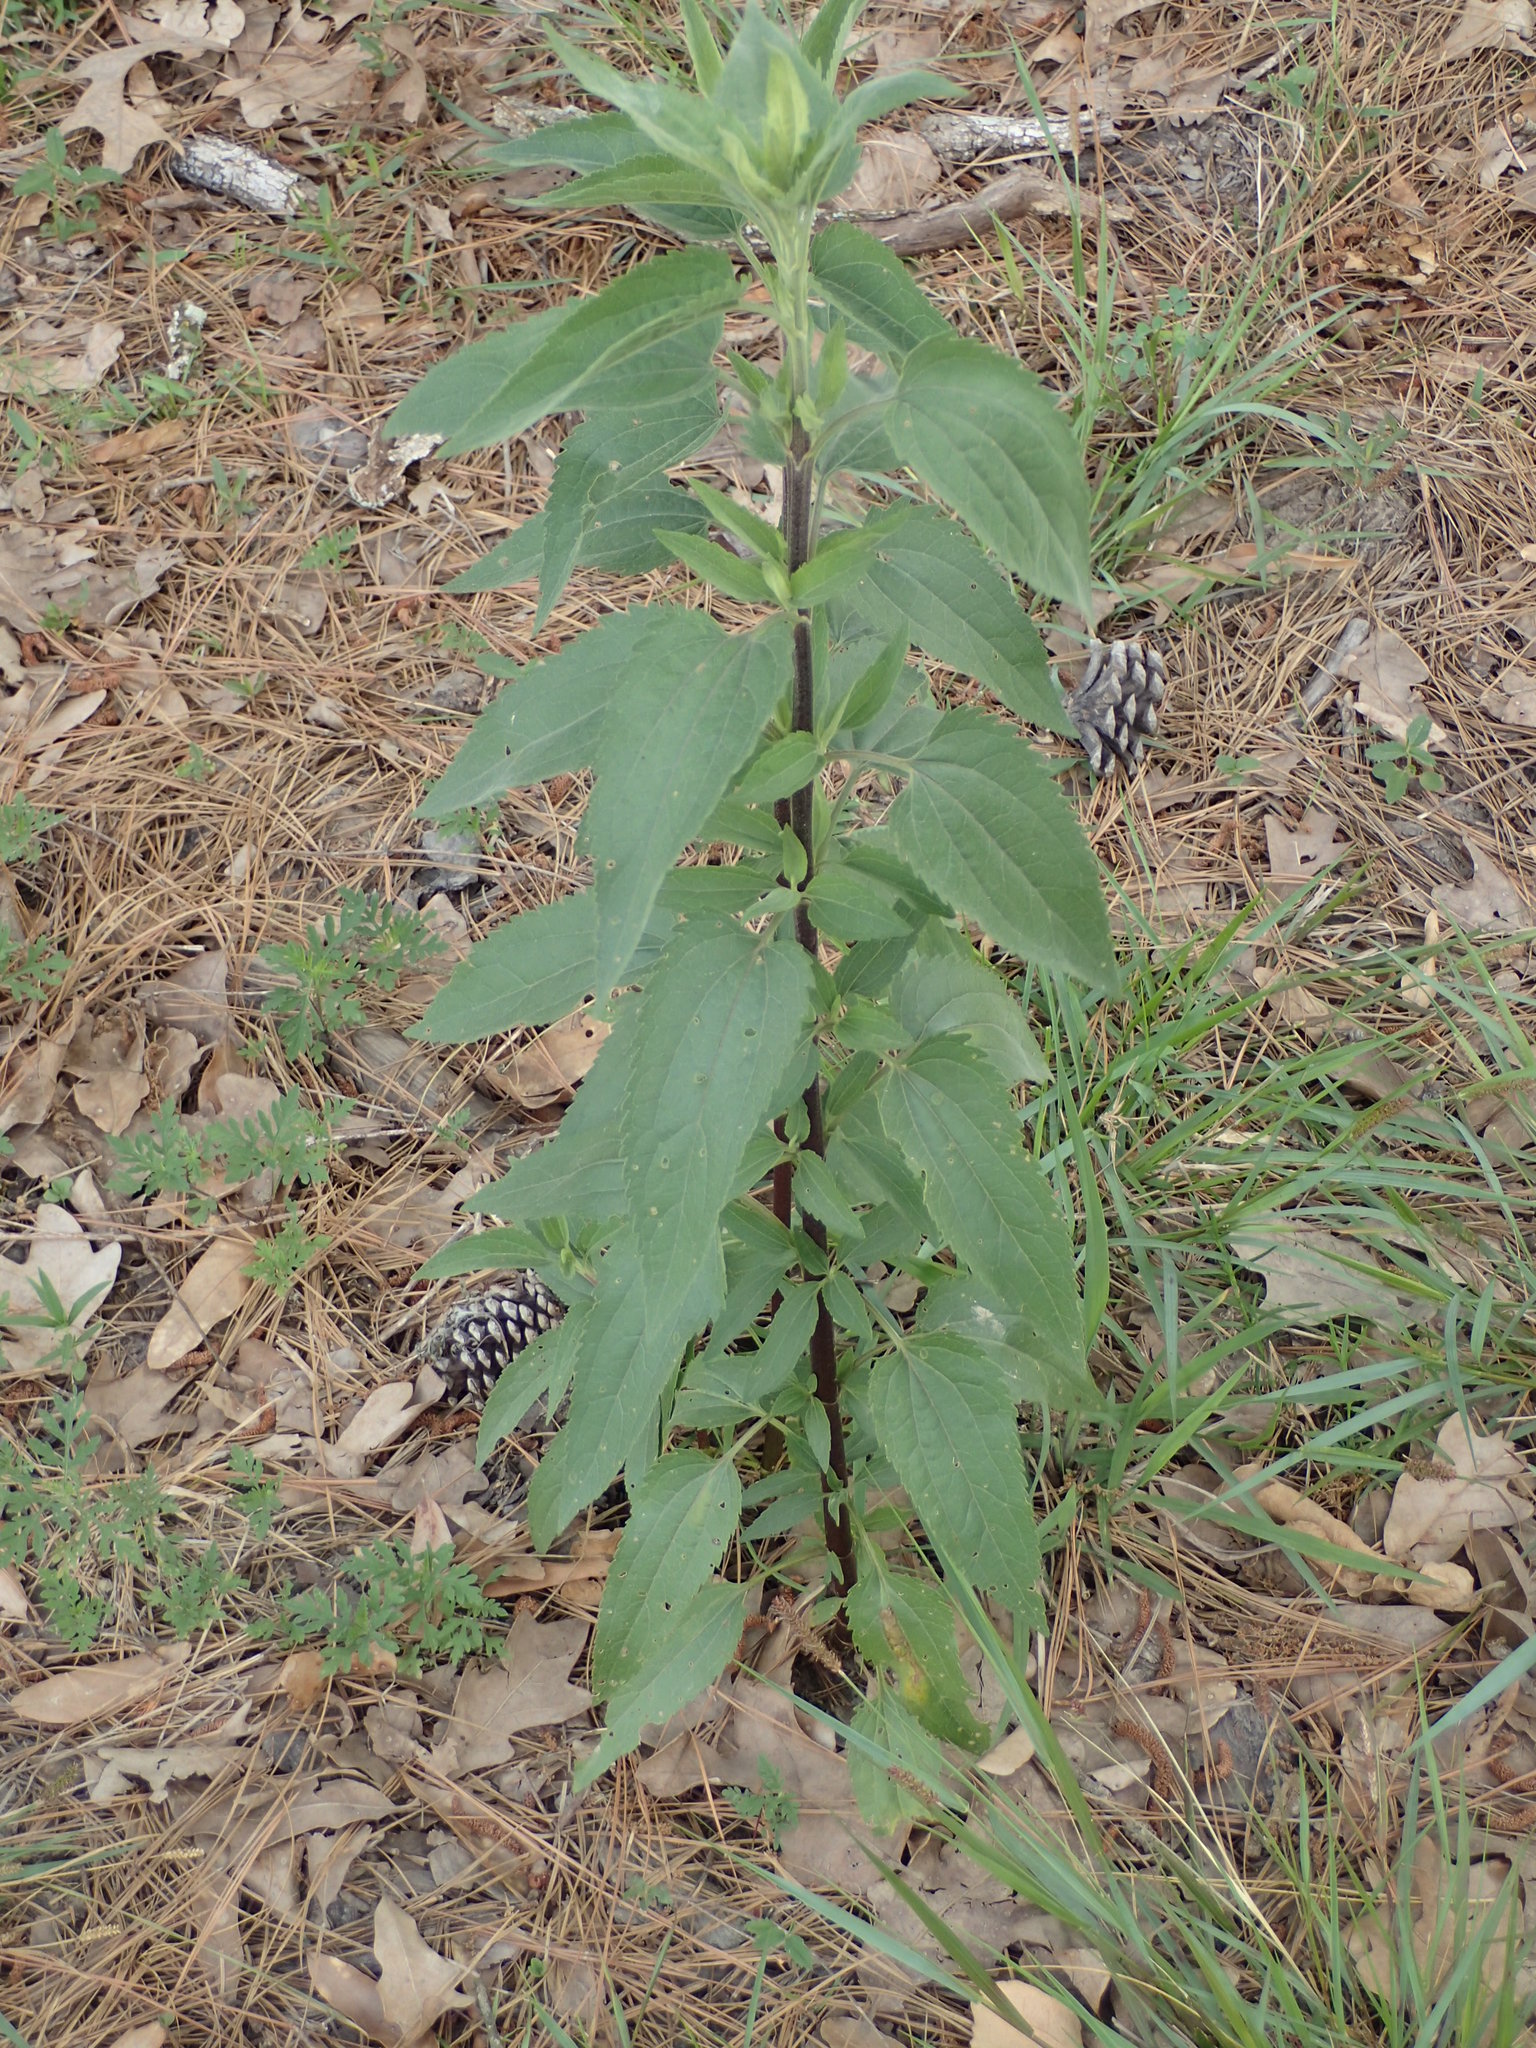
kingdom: Plantae
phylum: Tracheophyta
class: Magnoliopsida
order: Asterales
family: Asteraceae
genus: Eupatorium
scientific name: Eupatorium serotinum
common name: Late boneset
